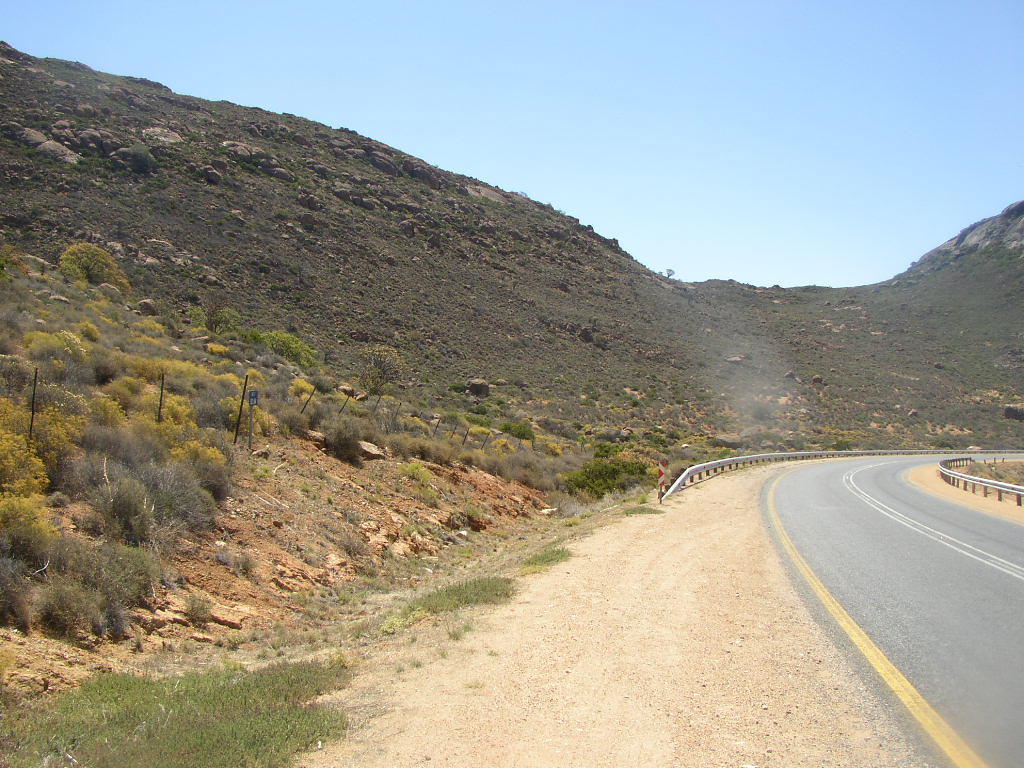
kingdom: Plantae
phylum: Tracheophyta
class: Liliopsida
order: Asparagales
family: Asphodelaceae
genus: Aloidendron
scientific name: Aloidendron dichotomum
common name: Quiver tree
